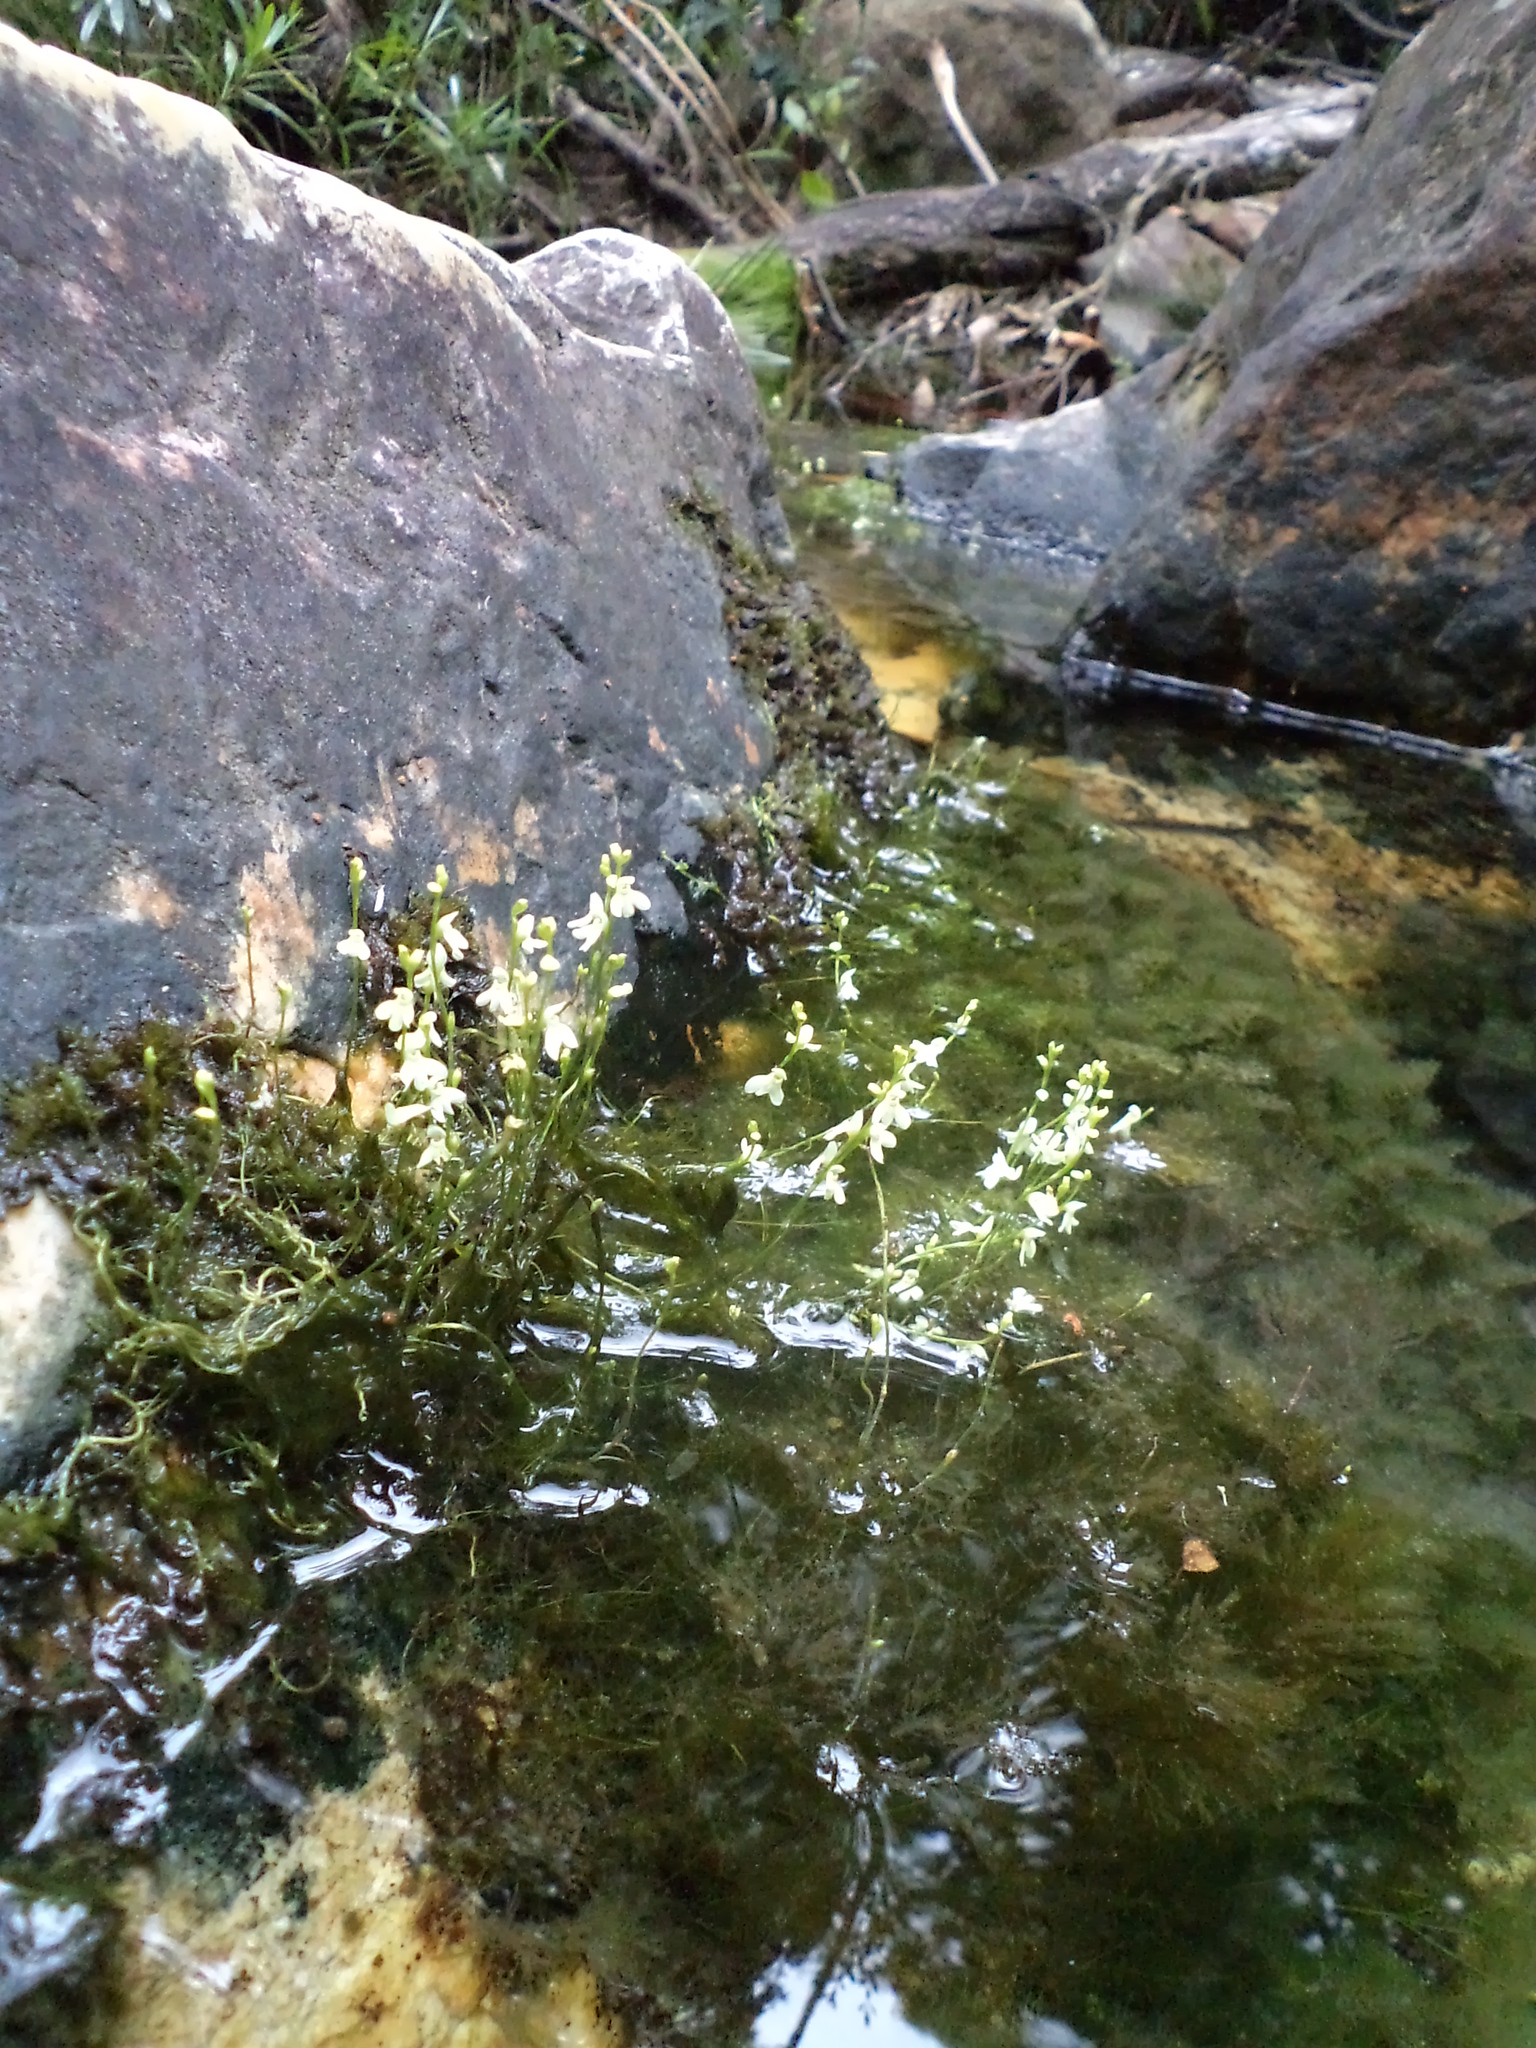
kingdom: Plantae
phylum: Tracheophyta
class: Magnoliopsida
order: Lamiales
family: Lentibulariaceae
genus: Utricularia
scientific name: Utricularia neottioides
